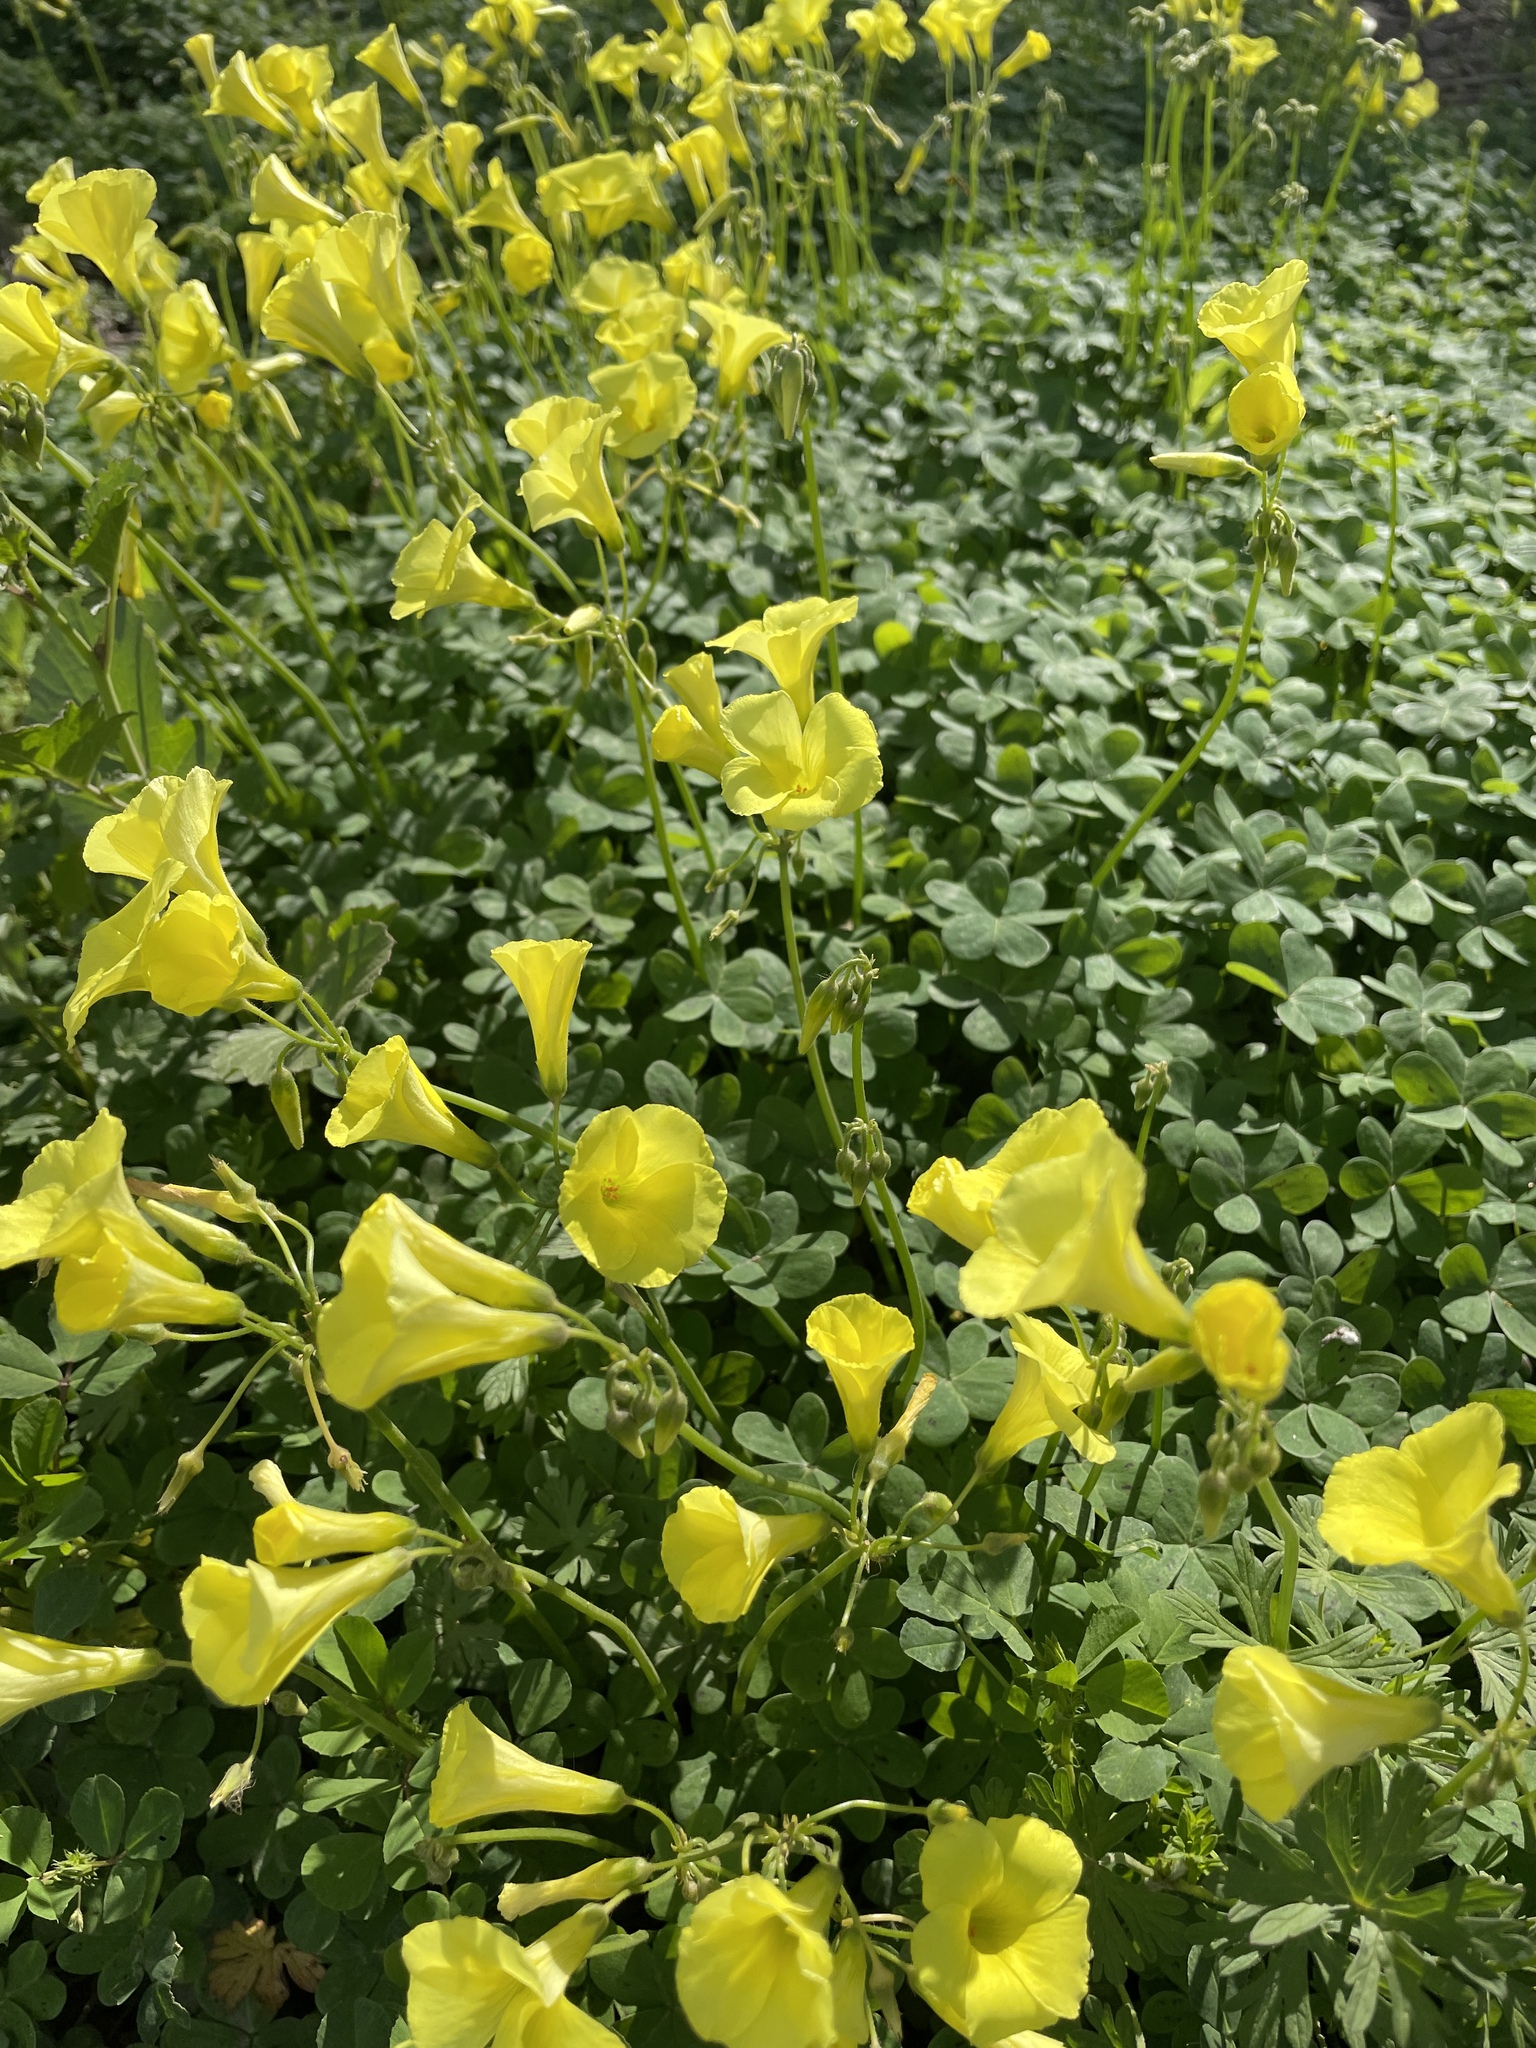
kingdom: Plantae
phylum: Tracheophyta
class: Magnoliopsida
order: Oxalidales
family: Oxalidaceae
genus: Oxalis
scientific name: Oxalis pes-caprae
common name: Bermuda-buttercup
